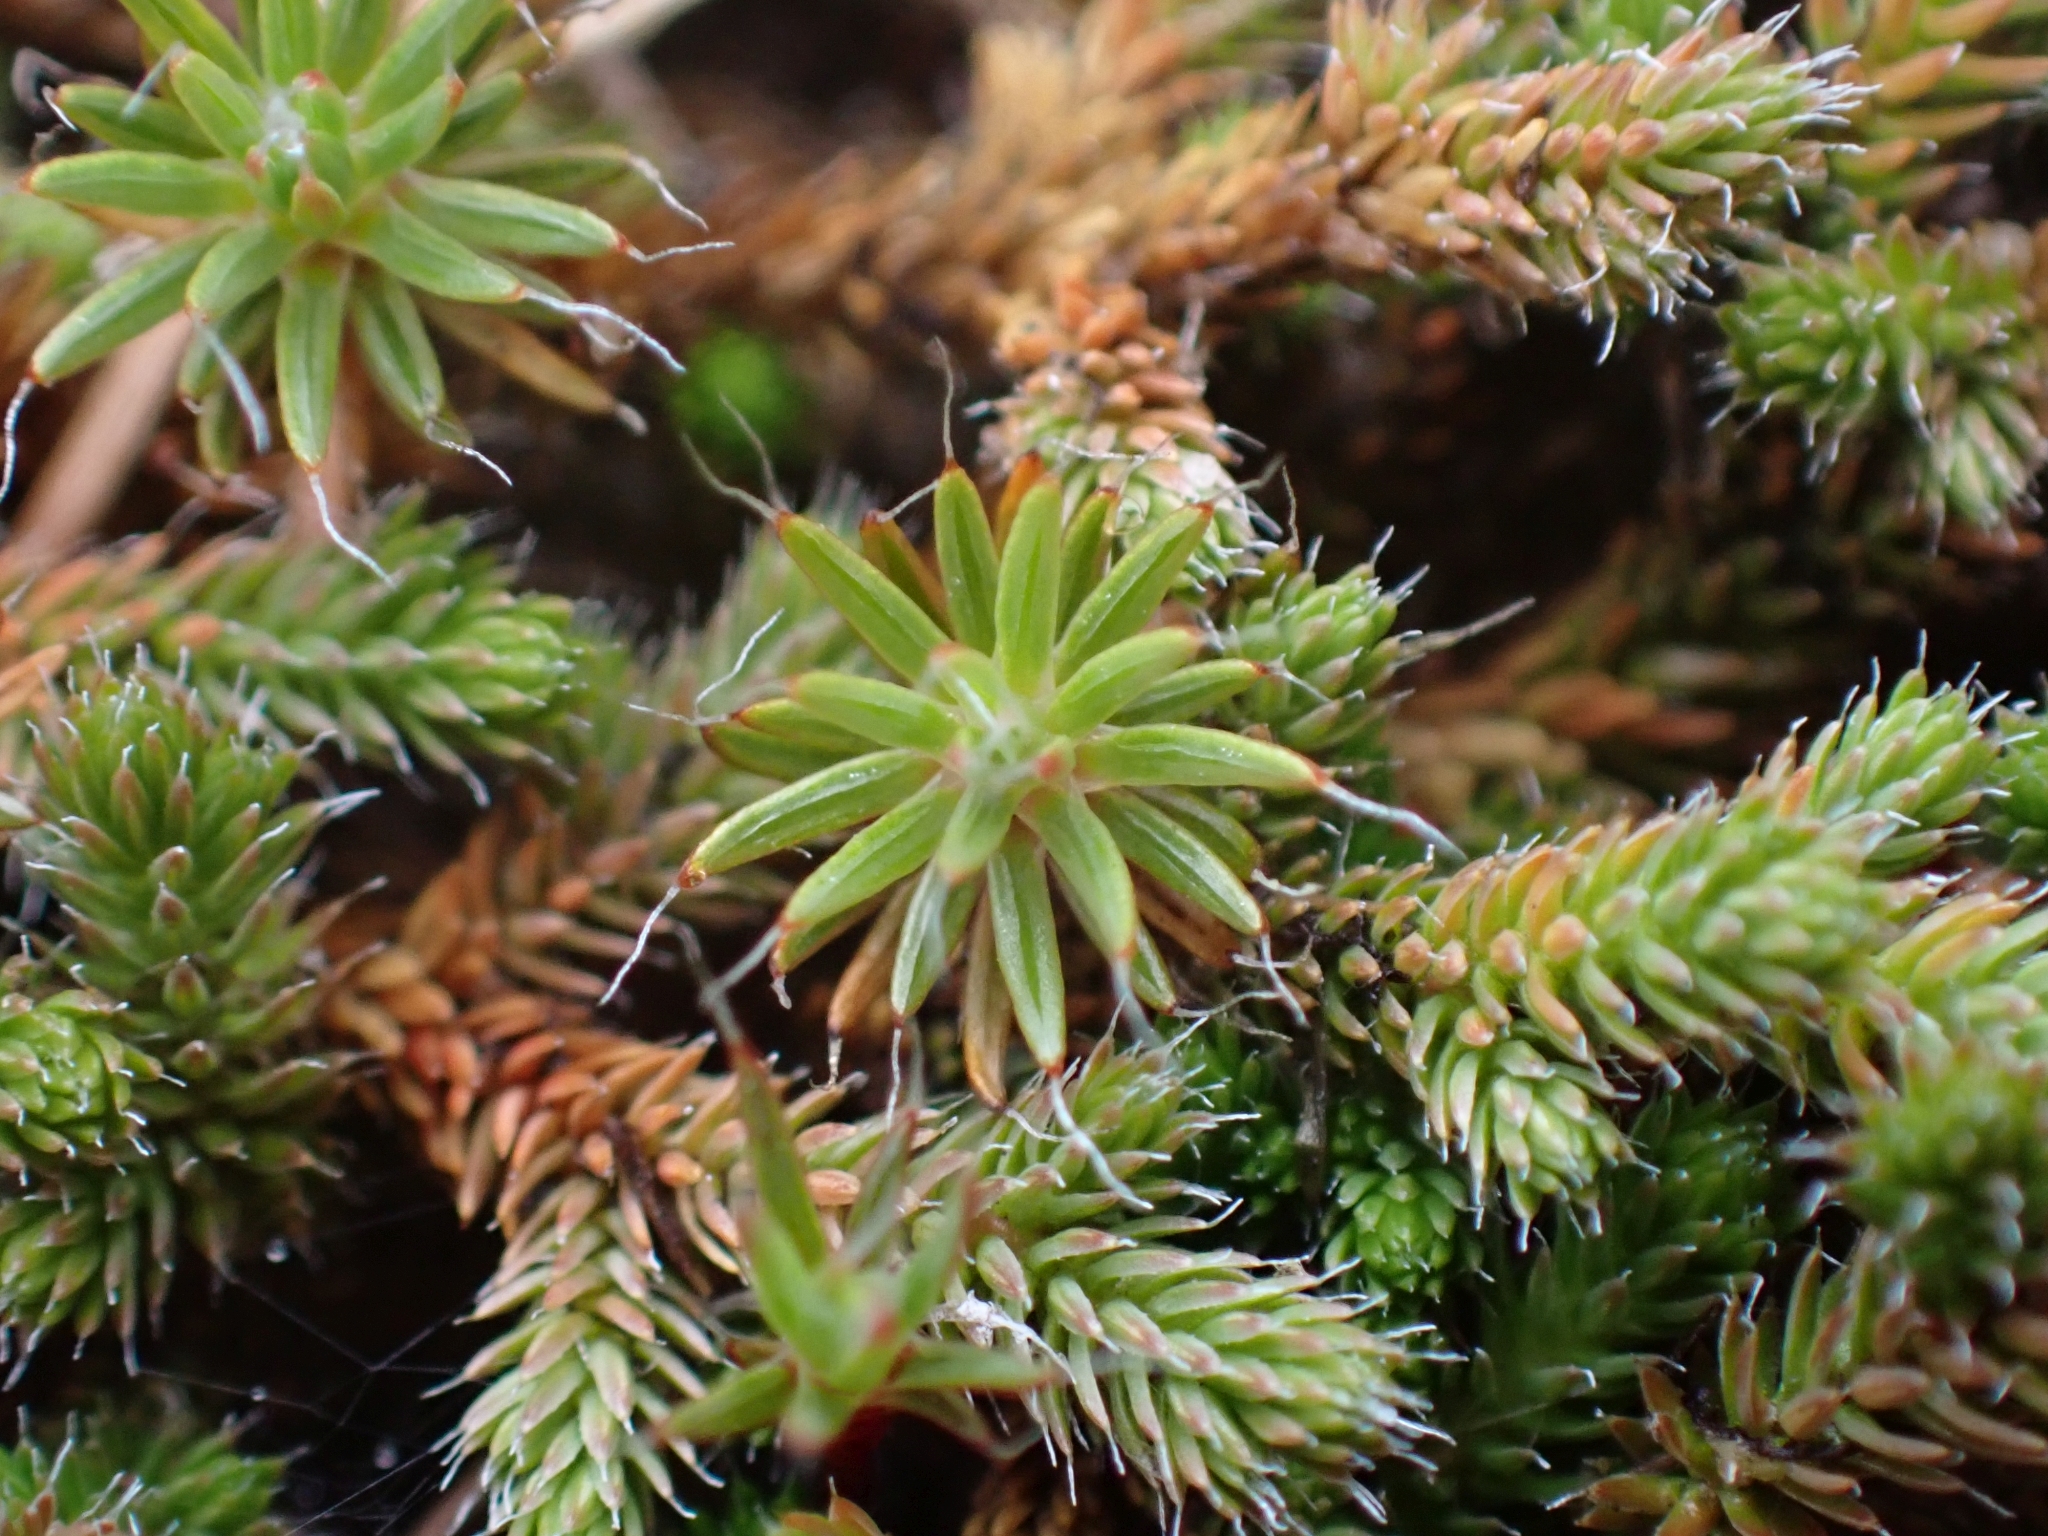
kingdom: Plantae
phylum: Bryophyta
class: Polytrichopsida
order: Polytrichales
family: Polytrichaceae
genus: Polytrichum
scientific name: Polytrichum piliferum
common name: Bristly haircap
